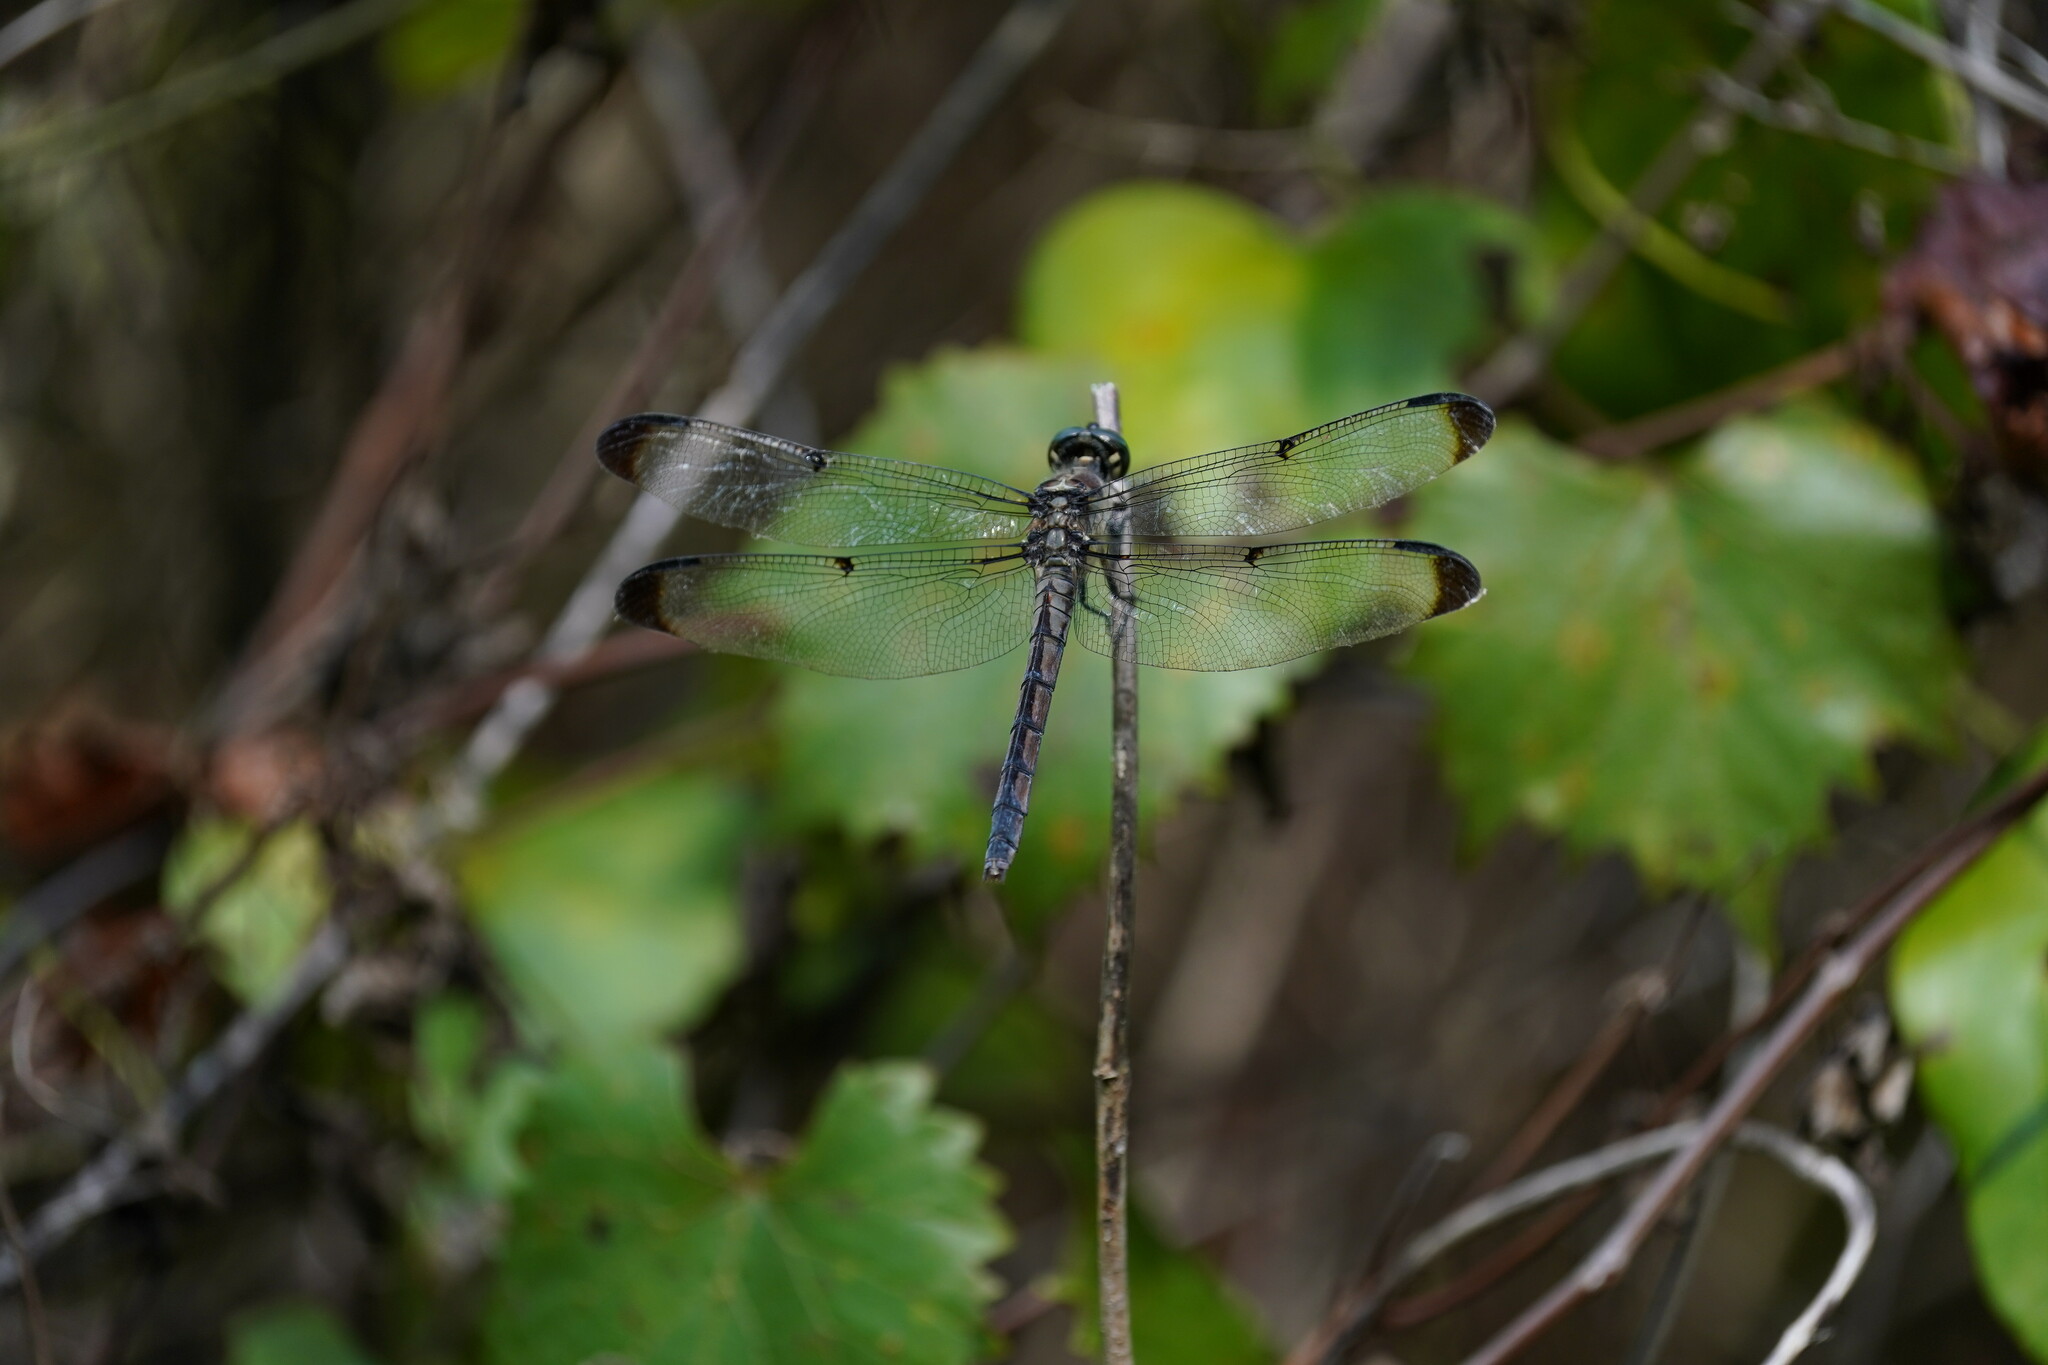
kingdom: Animalia
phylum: Arthropoda
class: Insecta
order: Odonata
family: Libellulidae
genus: Libellula
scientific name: Libellula vibrans
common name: Great blue skimmer
